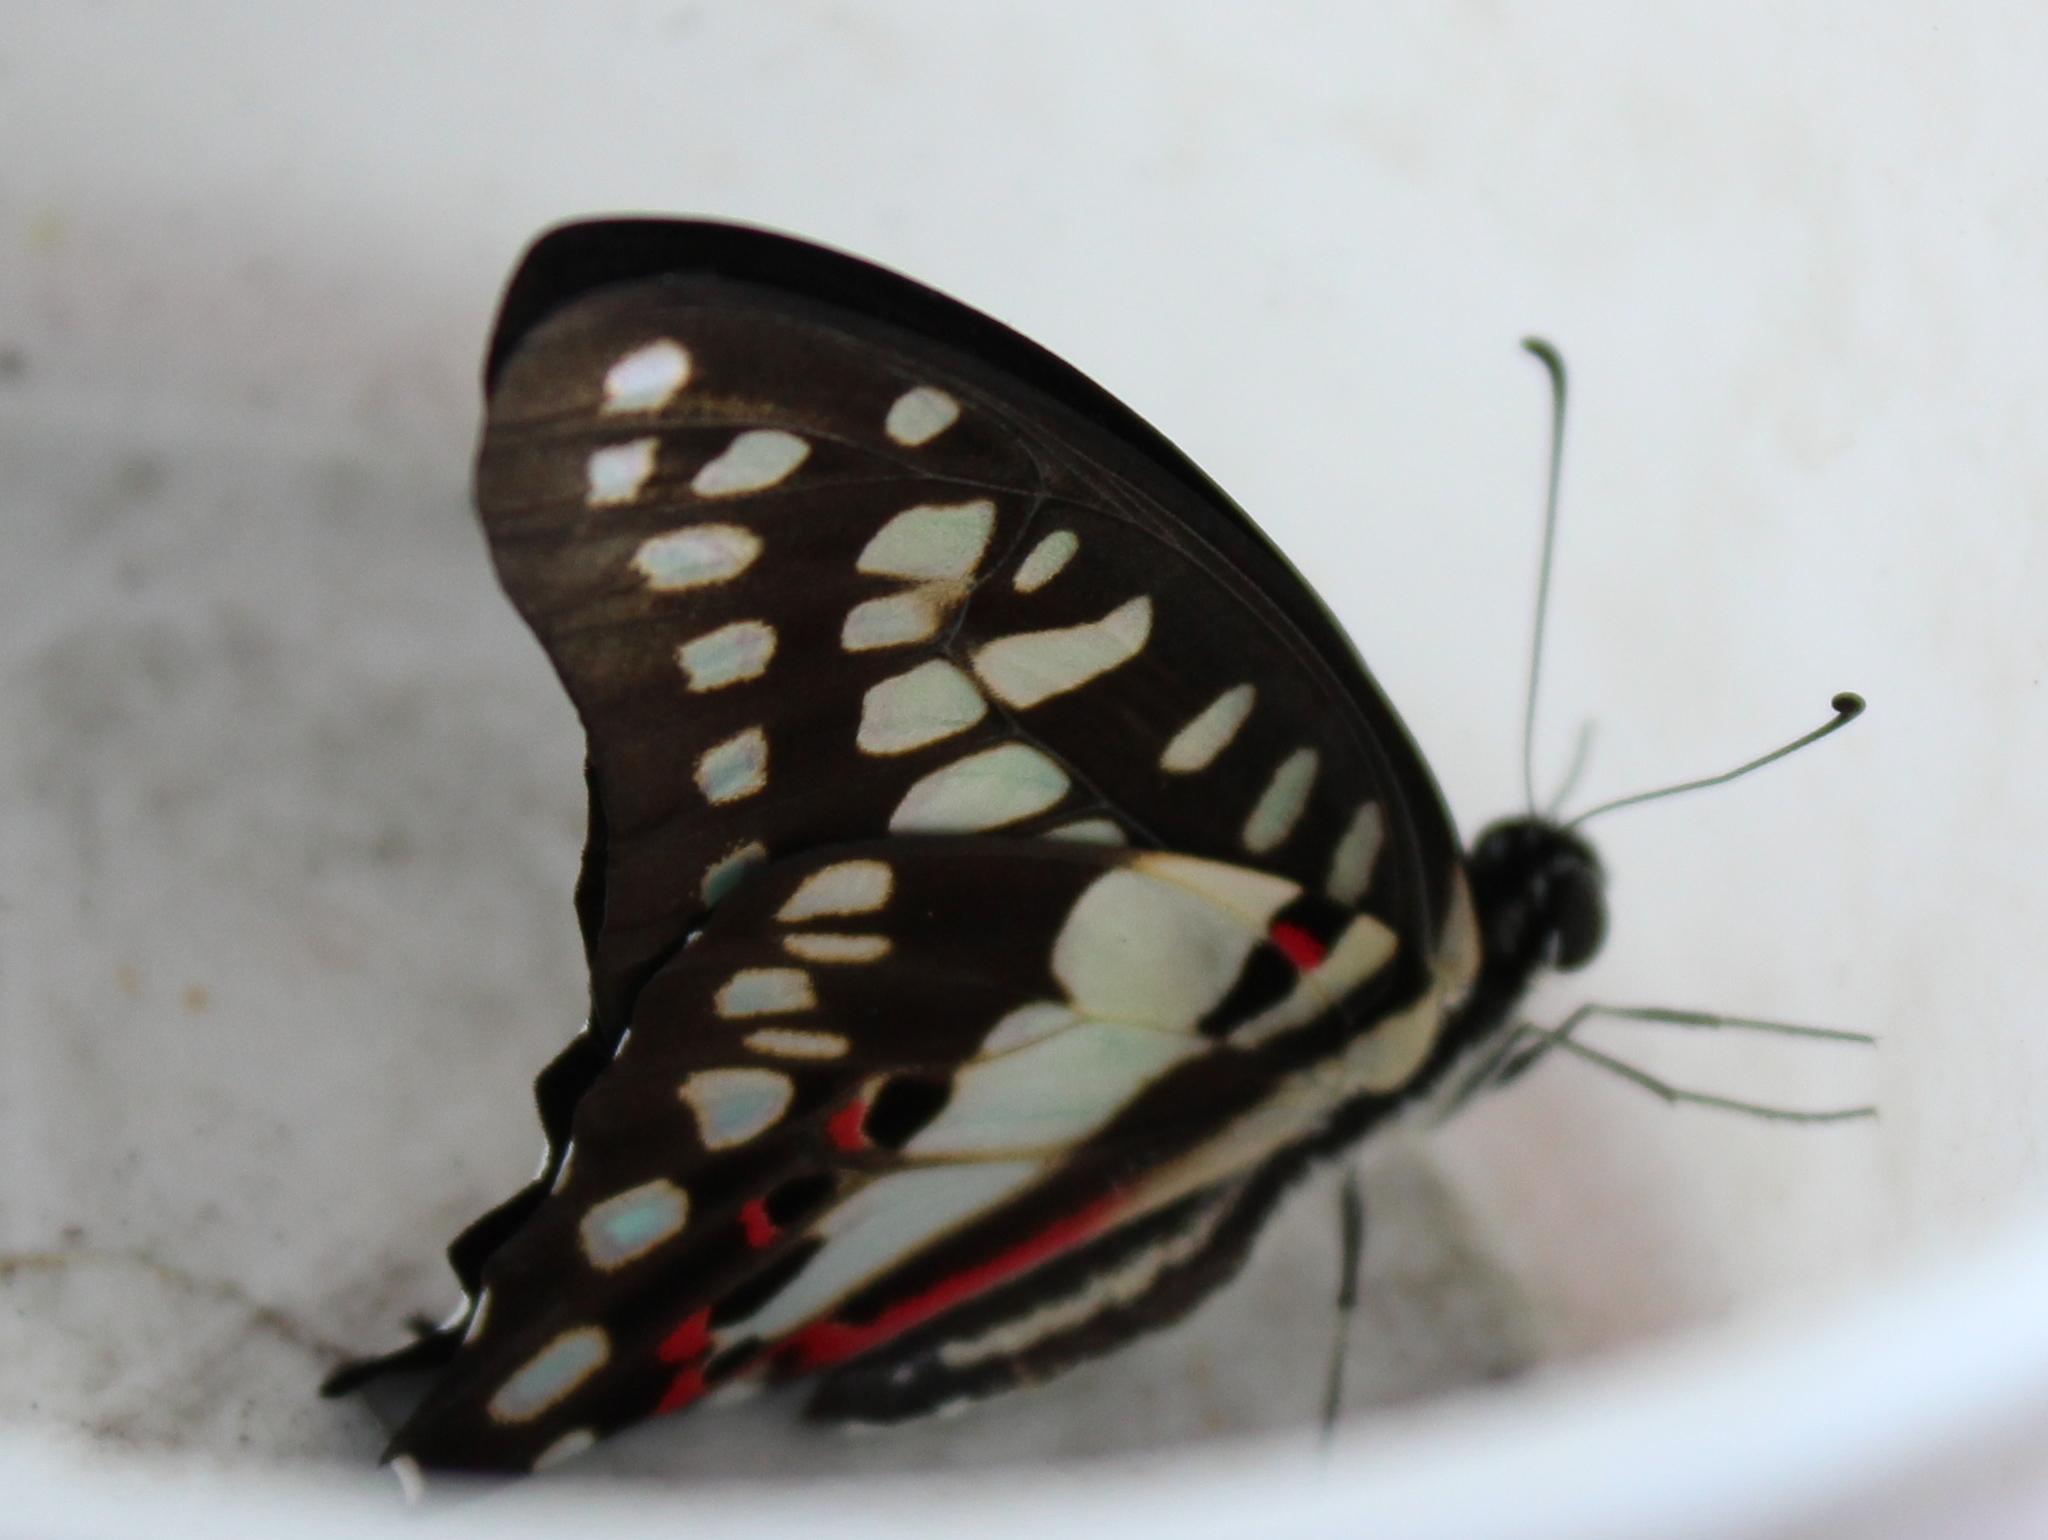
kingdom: Animalia
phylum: Arthropoda
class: Insecta
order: Lepidoptera
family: Papilionidae
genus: Graphium
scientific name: Graphium doson
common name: Common jay
